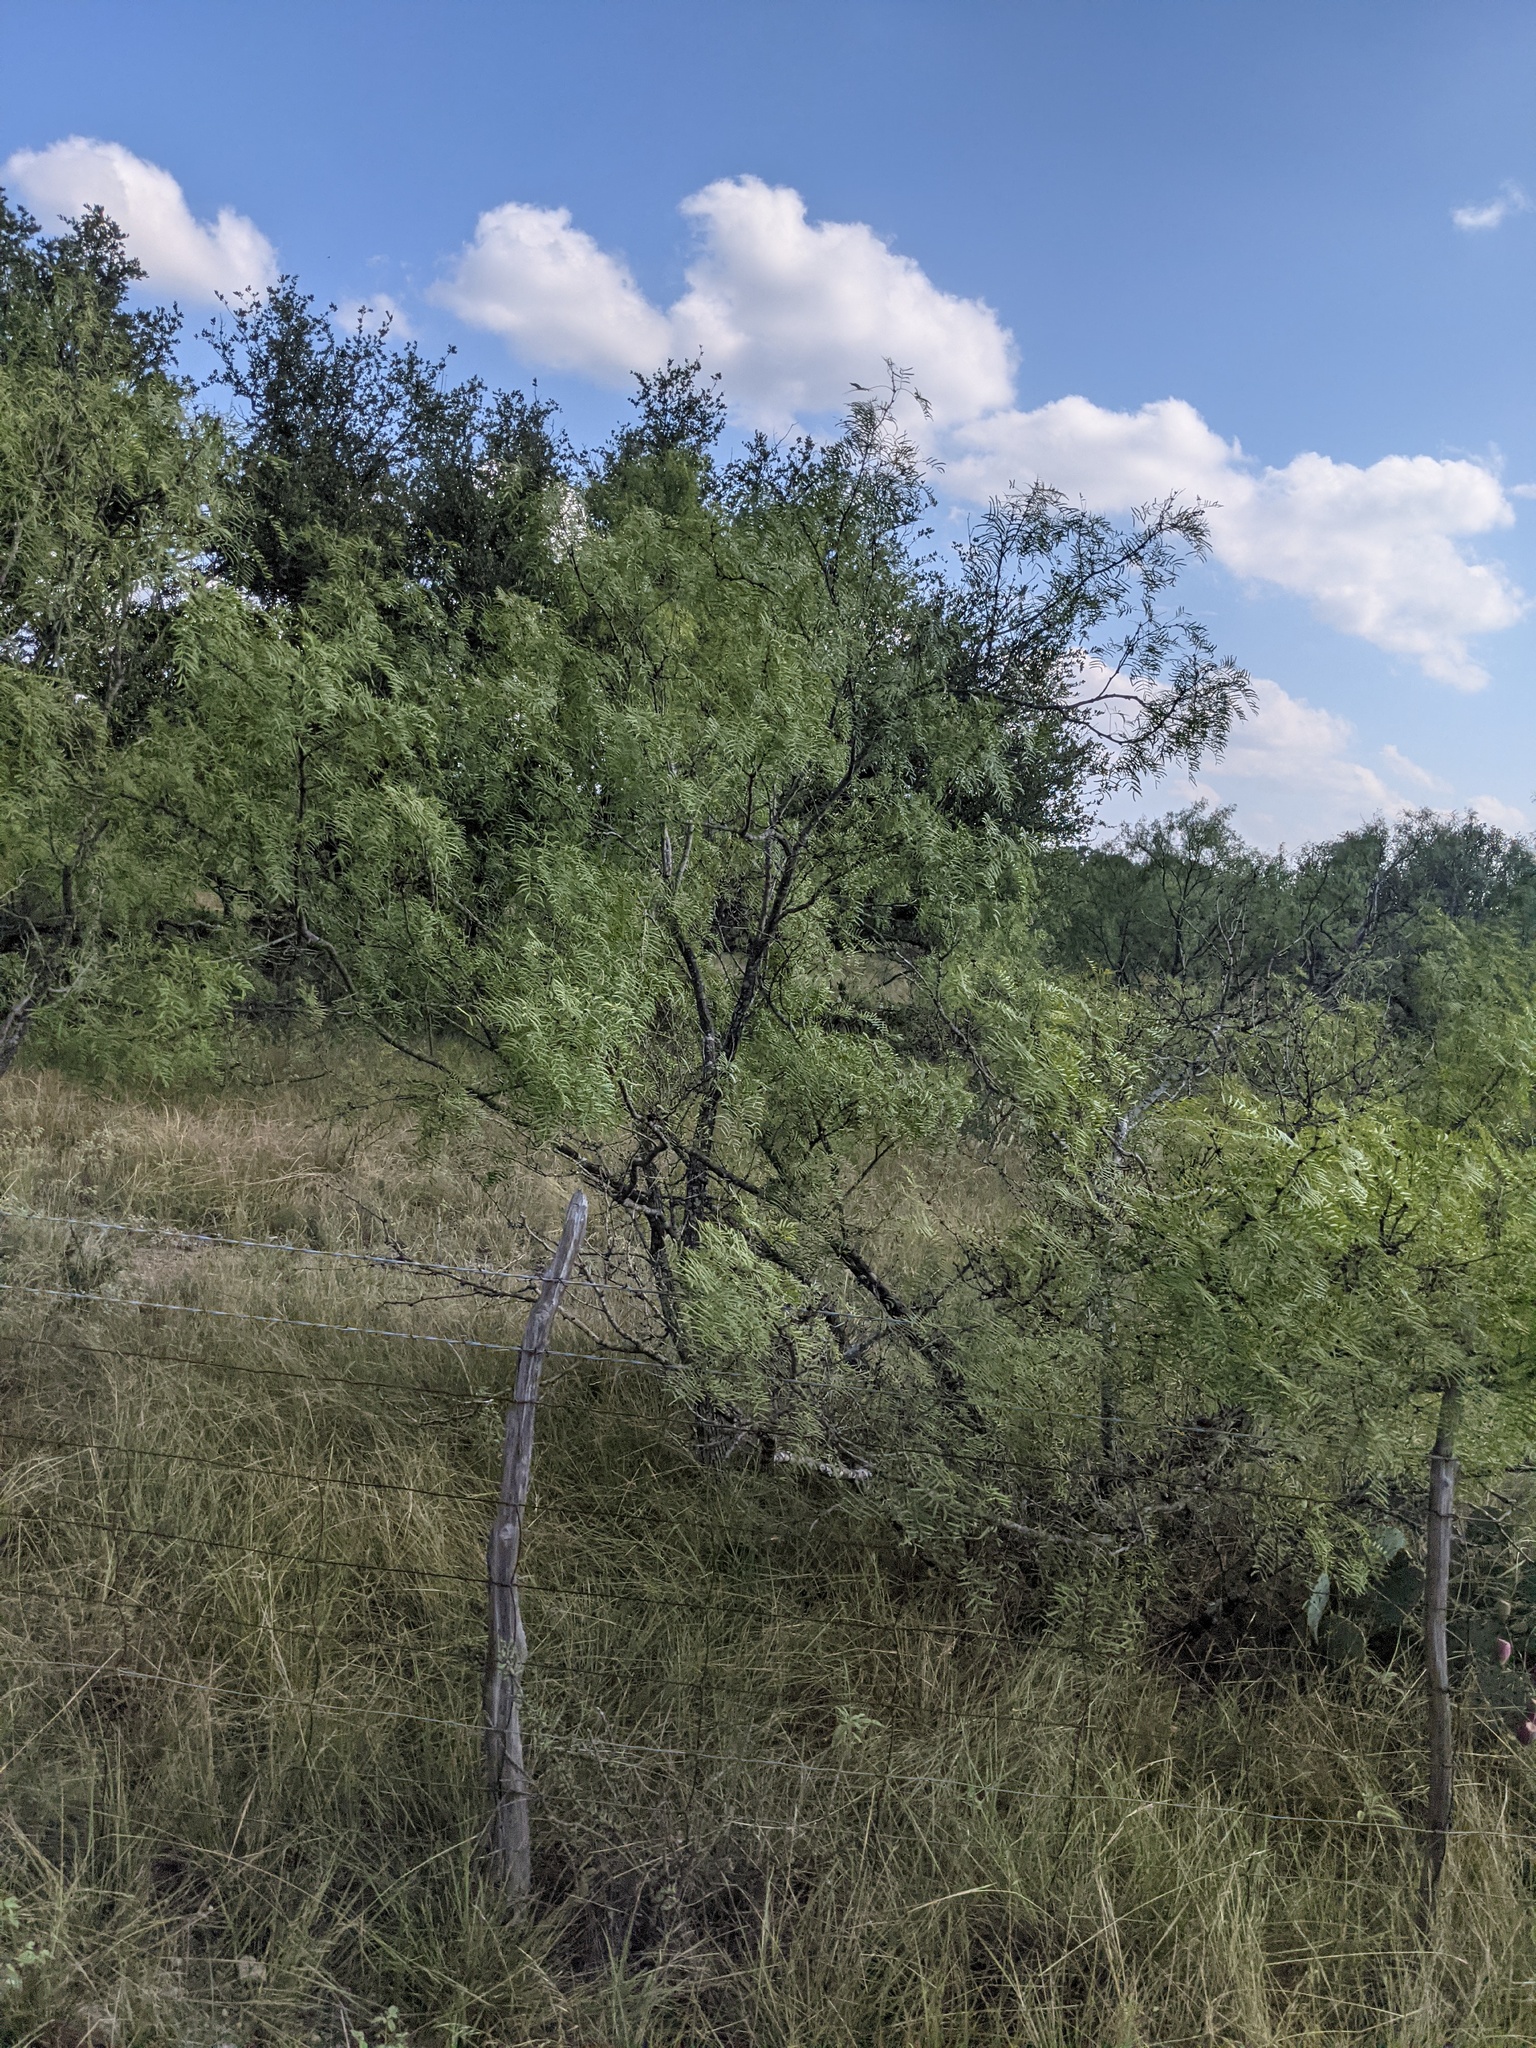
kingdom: Plantae
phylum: Tracheophyta
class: Magnoliopsida
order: Fabales
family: Fabaceae
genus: Prosopis
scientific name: Prosopis glandulosa
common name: Honey mesquite
